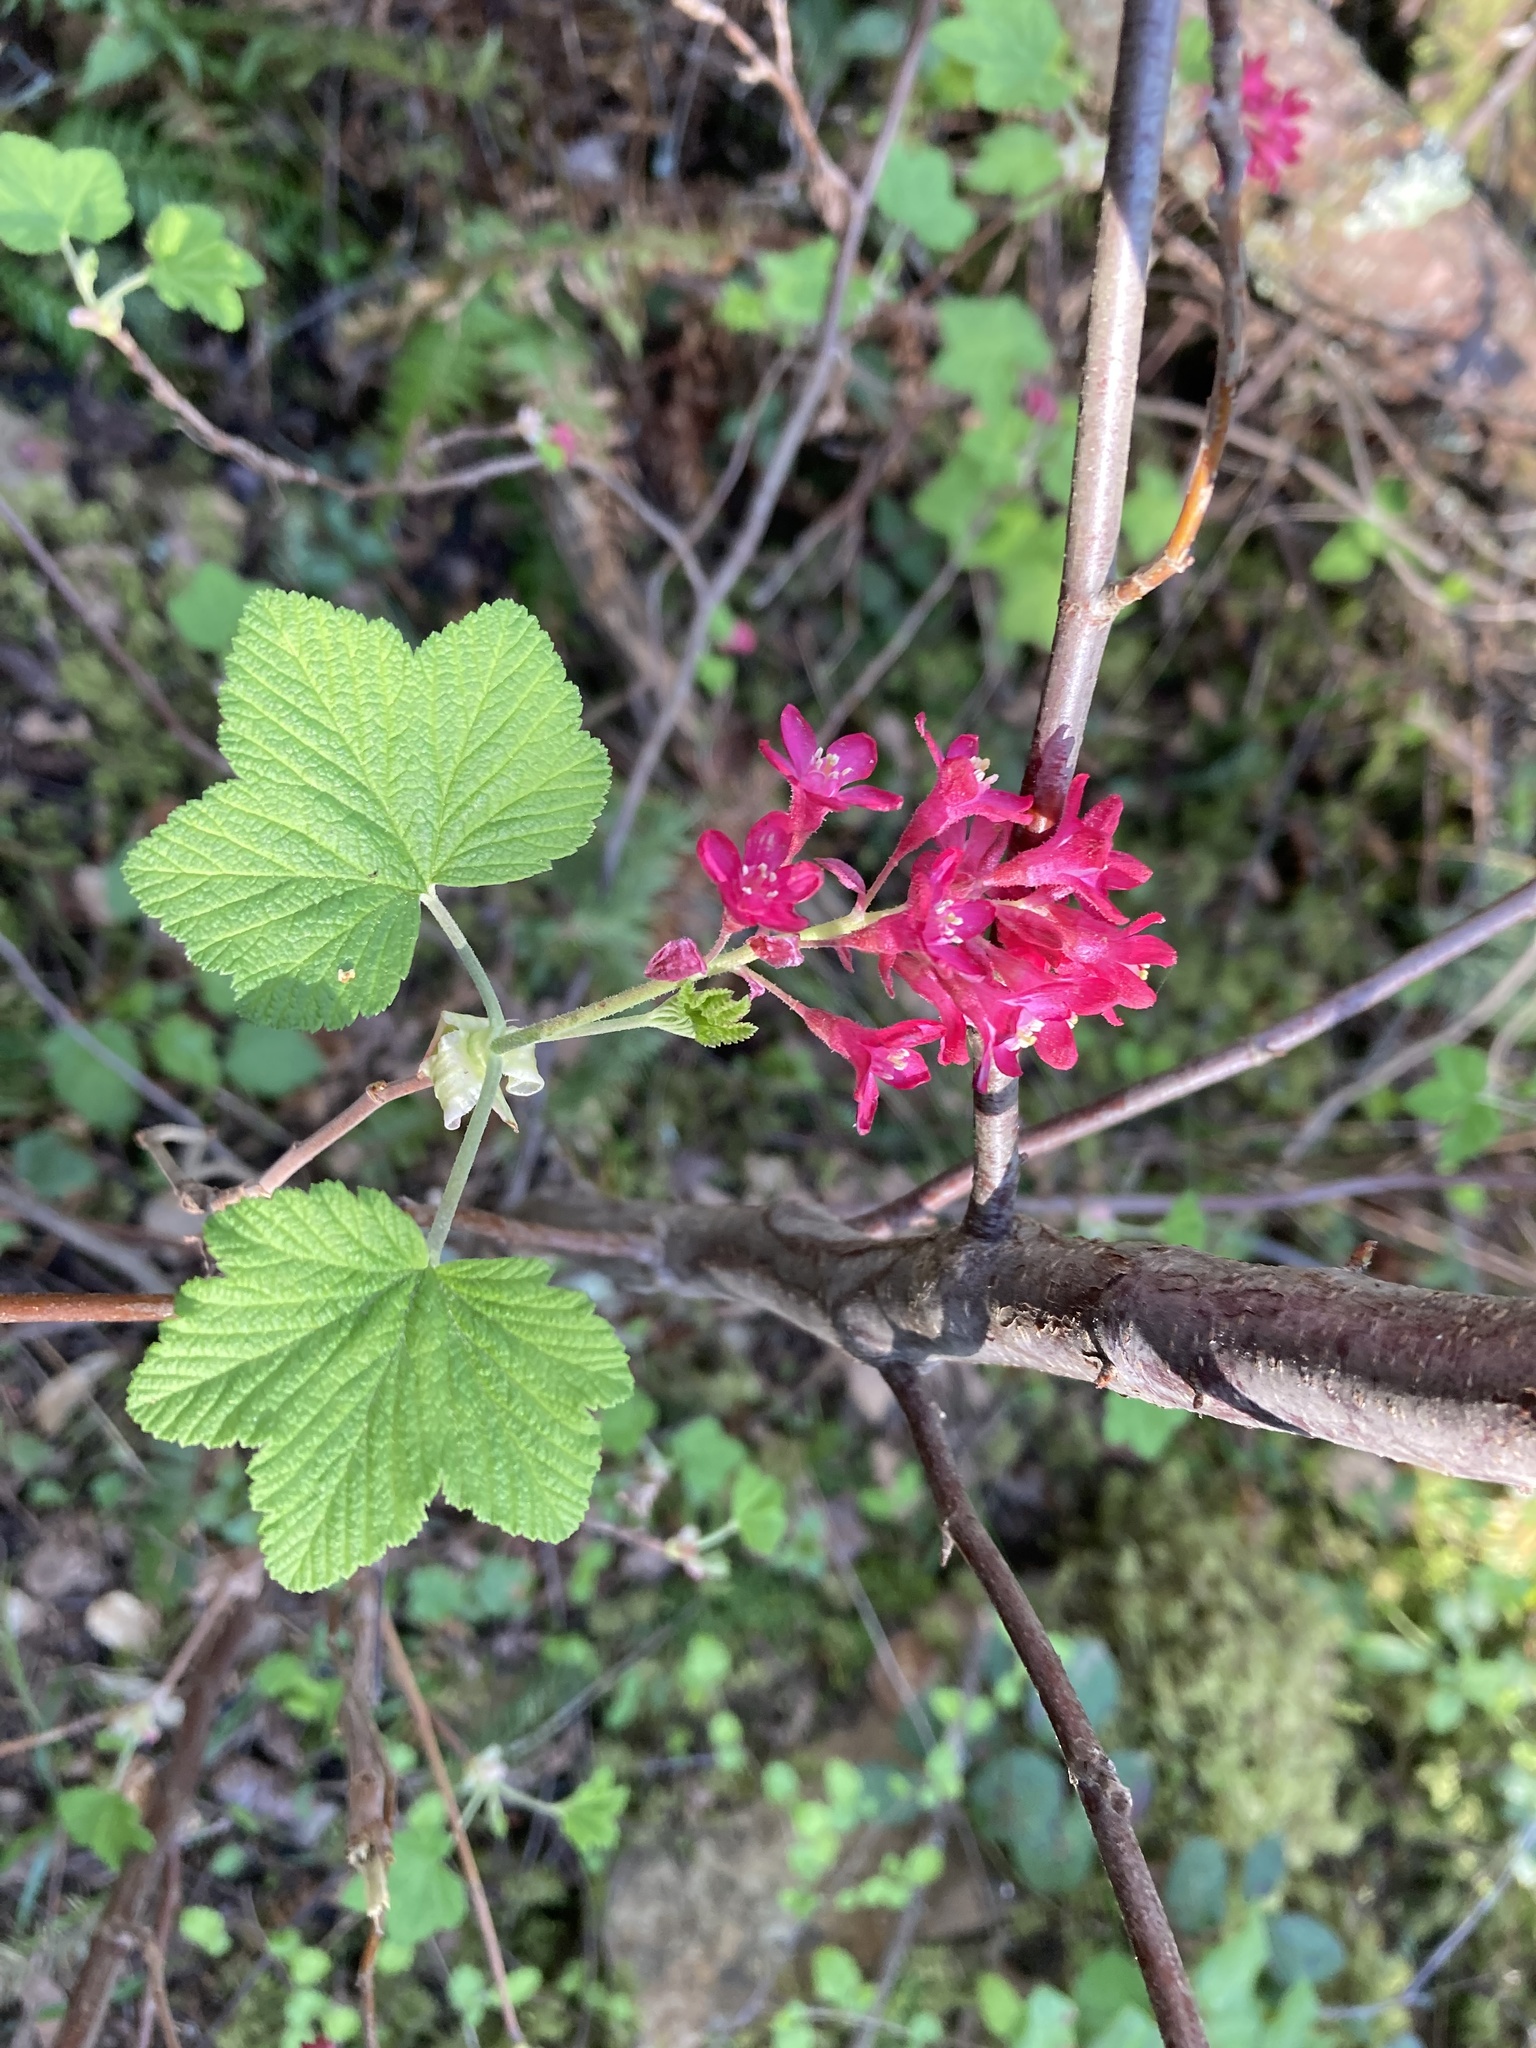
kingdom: Plantae
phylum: Tracheophyta
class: Magnoliopsida
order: Saxifragales
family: Grossulariaceae
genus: Ribes
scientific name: Ribes sanguineum
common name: Flowering currant
